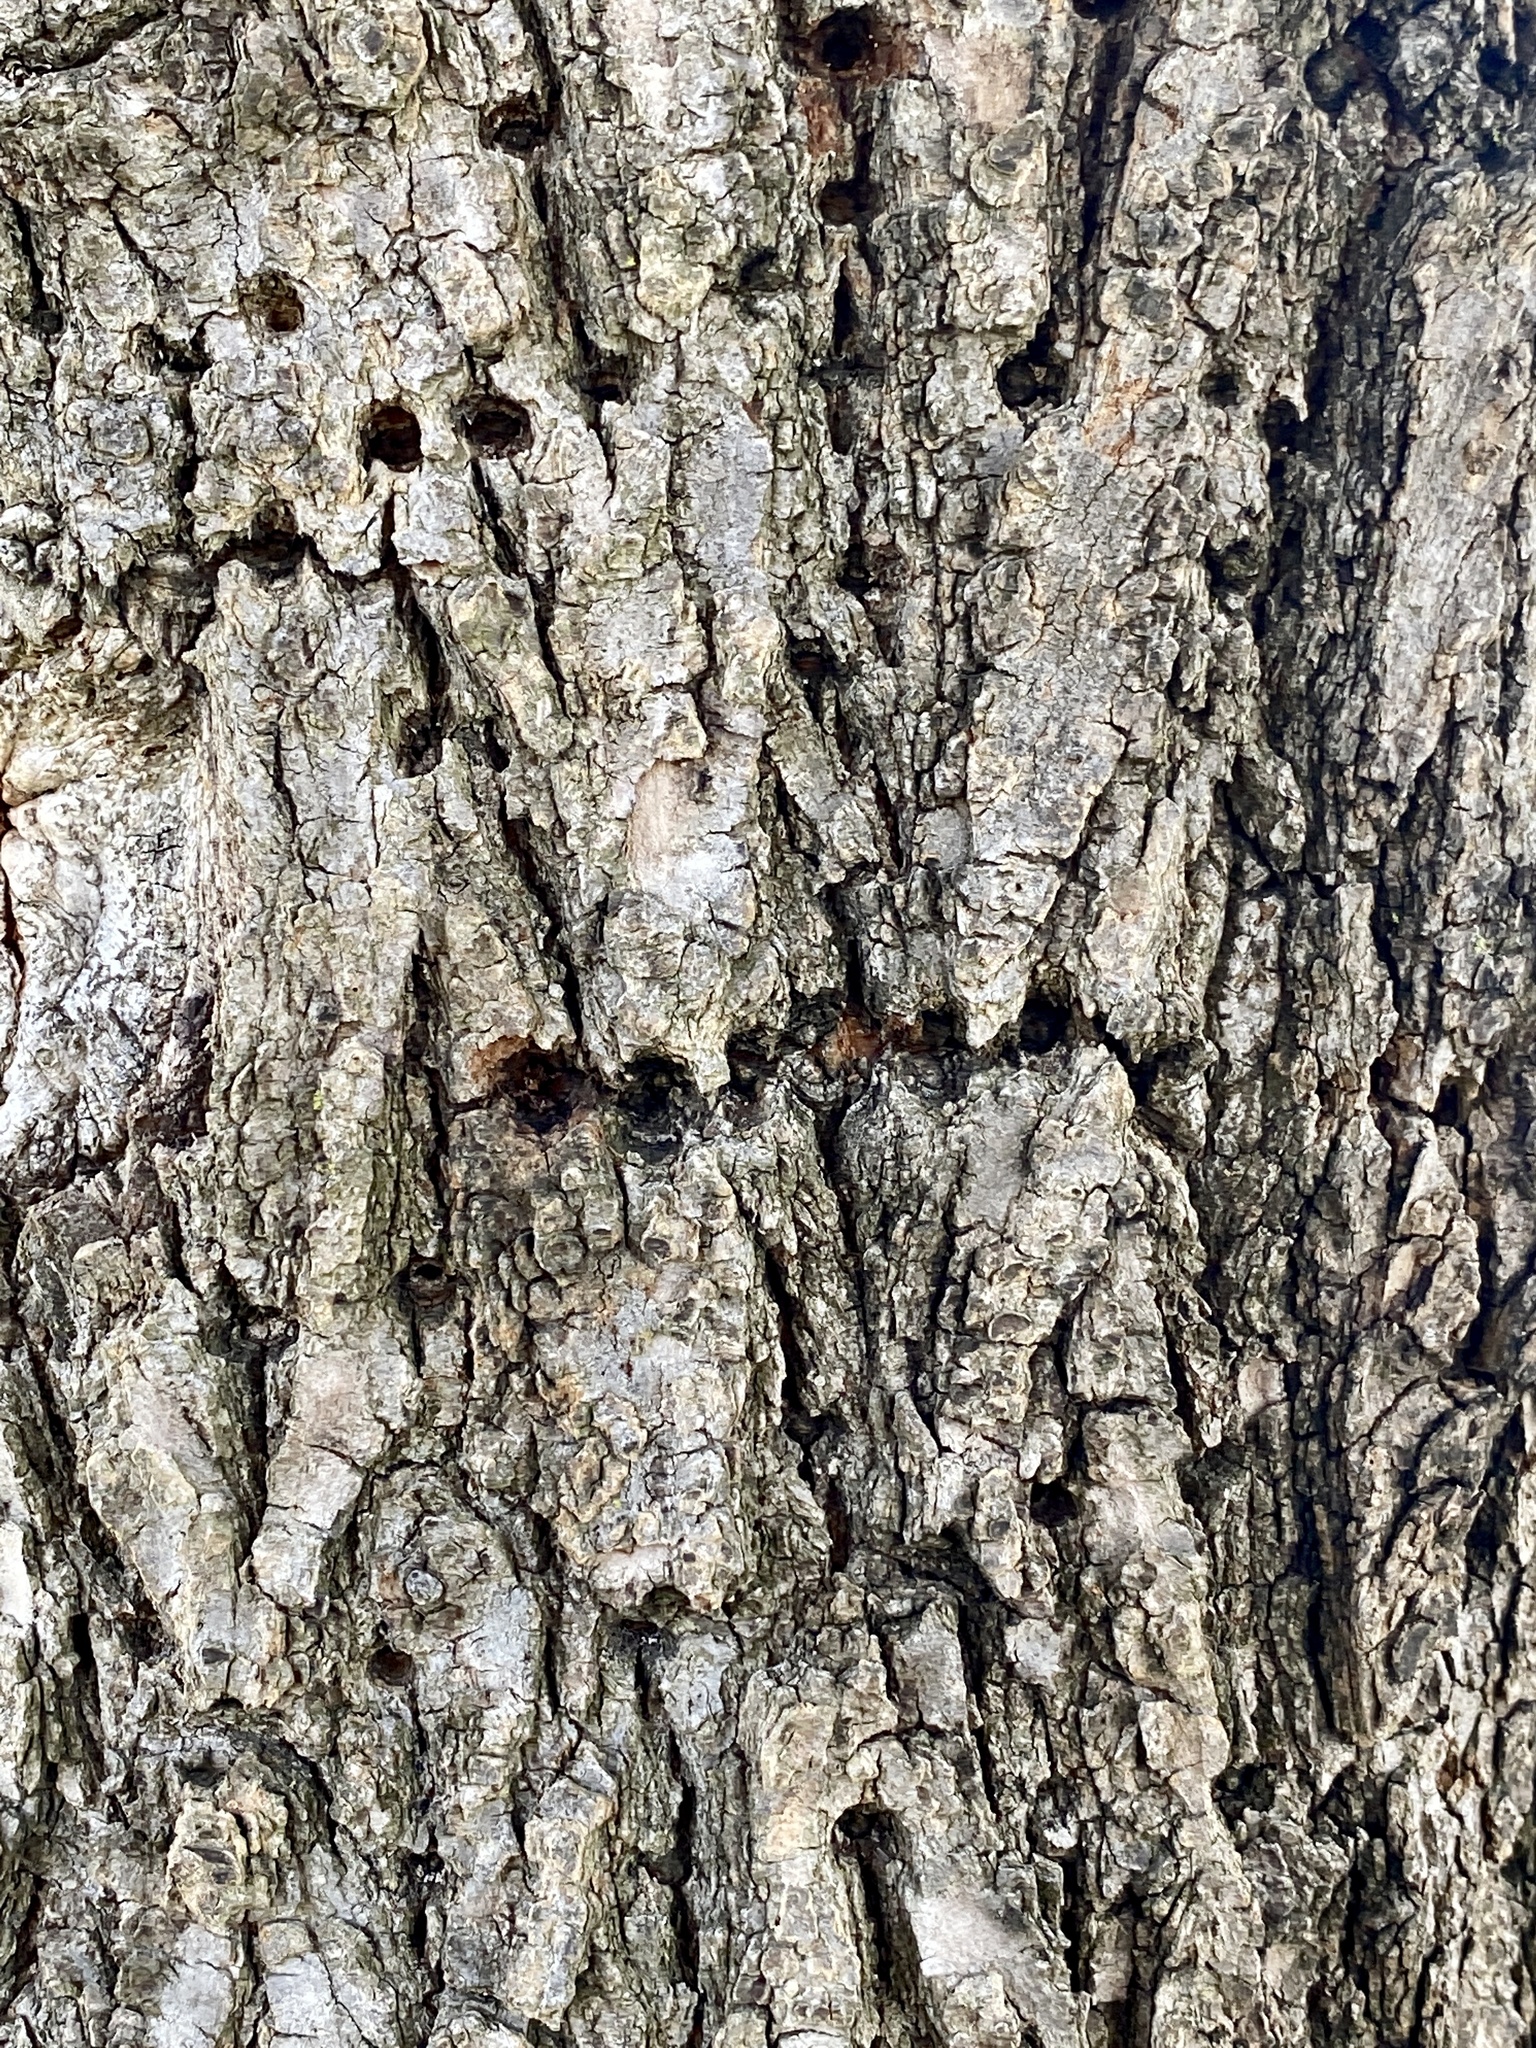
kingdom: Animalia
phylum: Chordata
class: Aves
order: Piciformes
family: Picidae
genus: Sphyrapicus
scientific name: Sphyrapicus varius
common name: Yellow-bellied sapsucker
